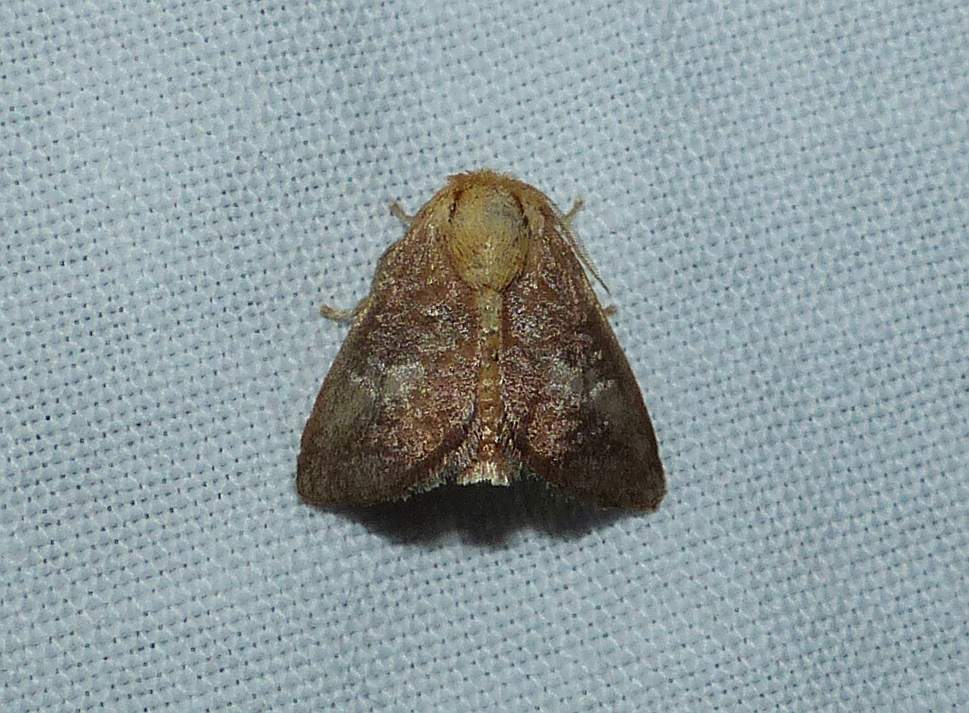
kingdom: Animalia
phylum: Arthropoda
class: Insecta
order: Lepidoptera
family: Limacodidae
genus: Isa
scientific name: Isa textula
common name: Crowned slug moth
